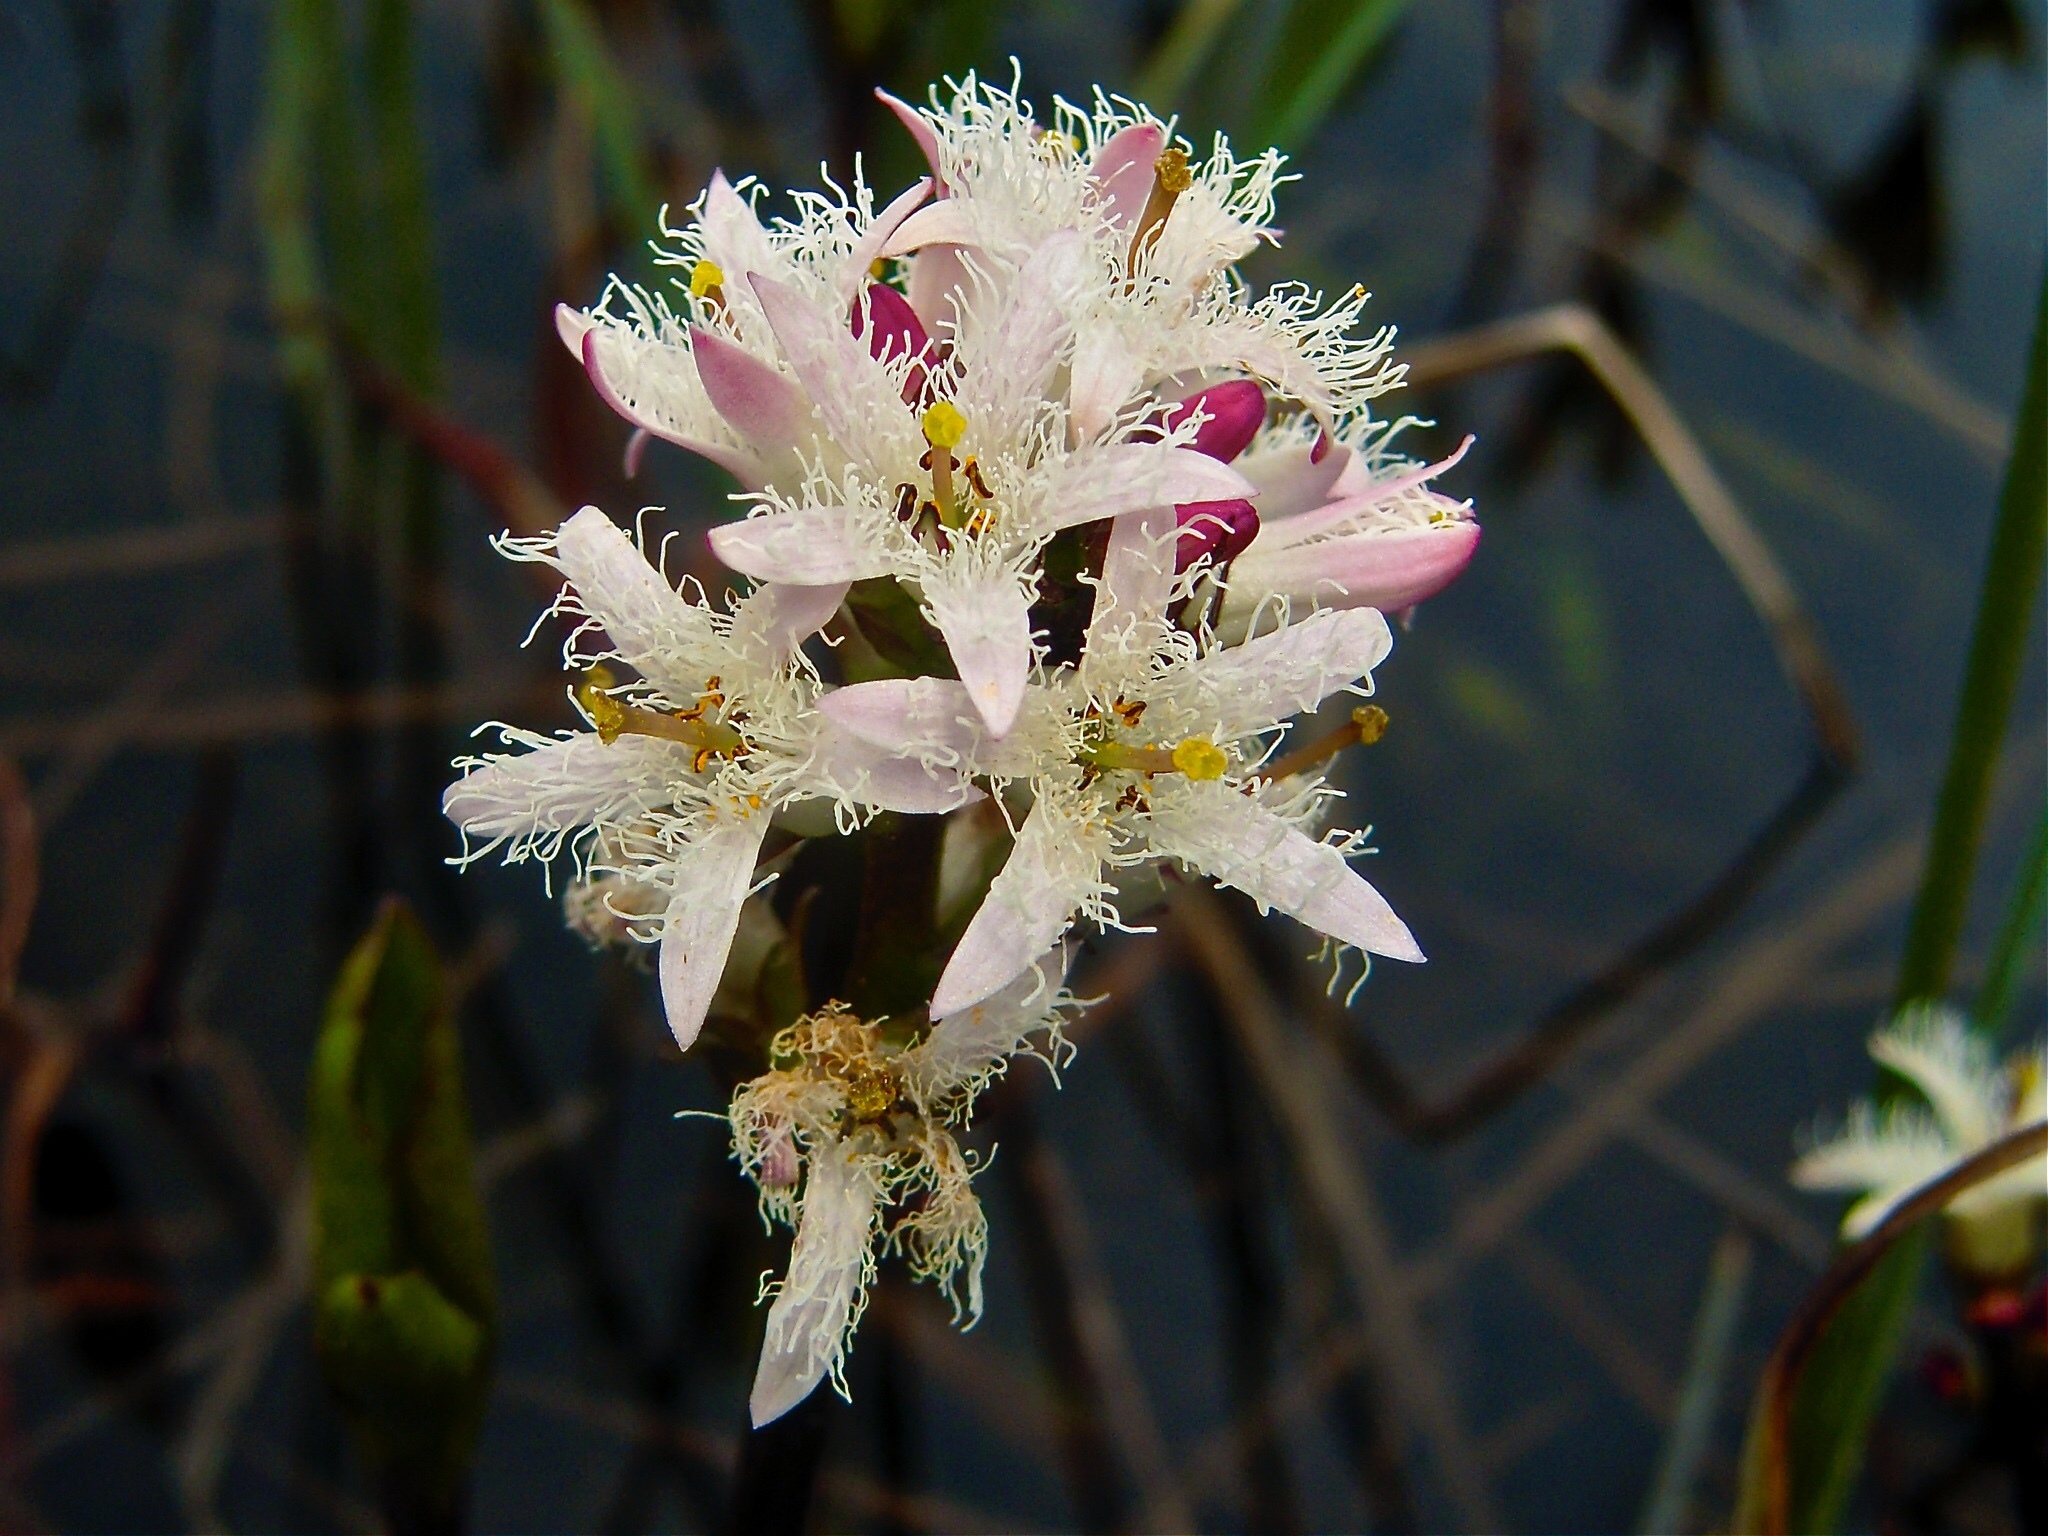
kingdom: Plantae
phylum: Tracheophyta
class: Magnoliopsida
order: Asterales
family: Menyanthaceae
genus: Menyanthes
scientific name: Menyanthes trifoliata
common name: Bogbean
